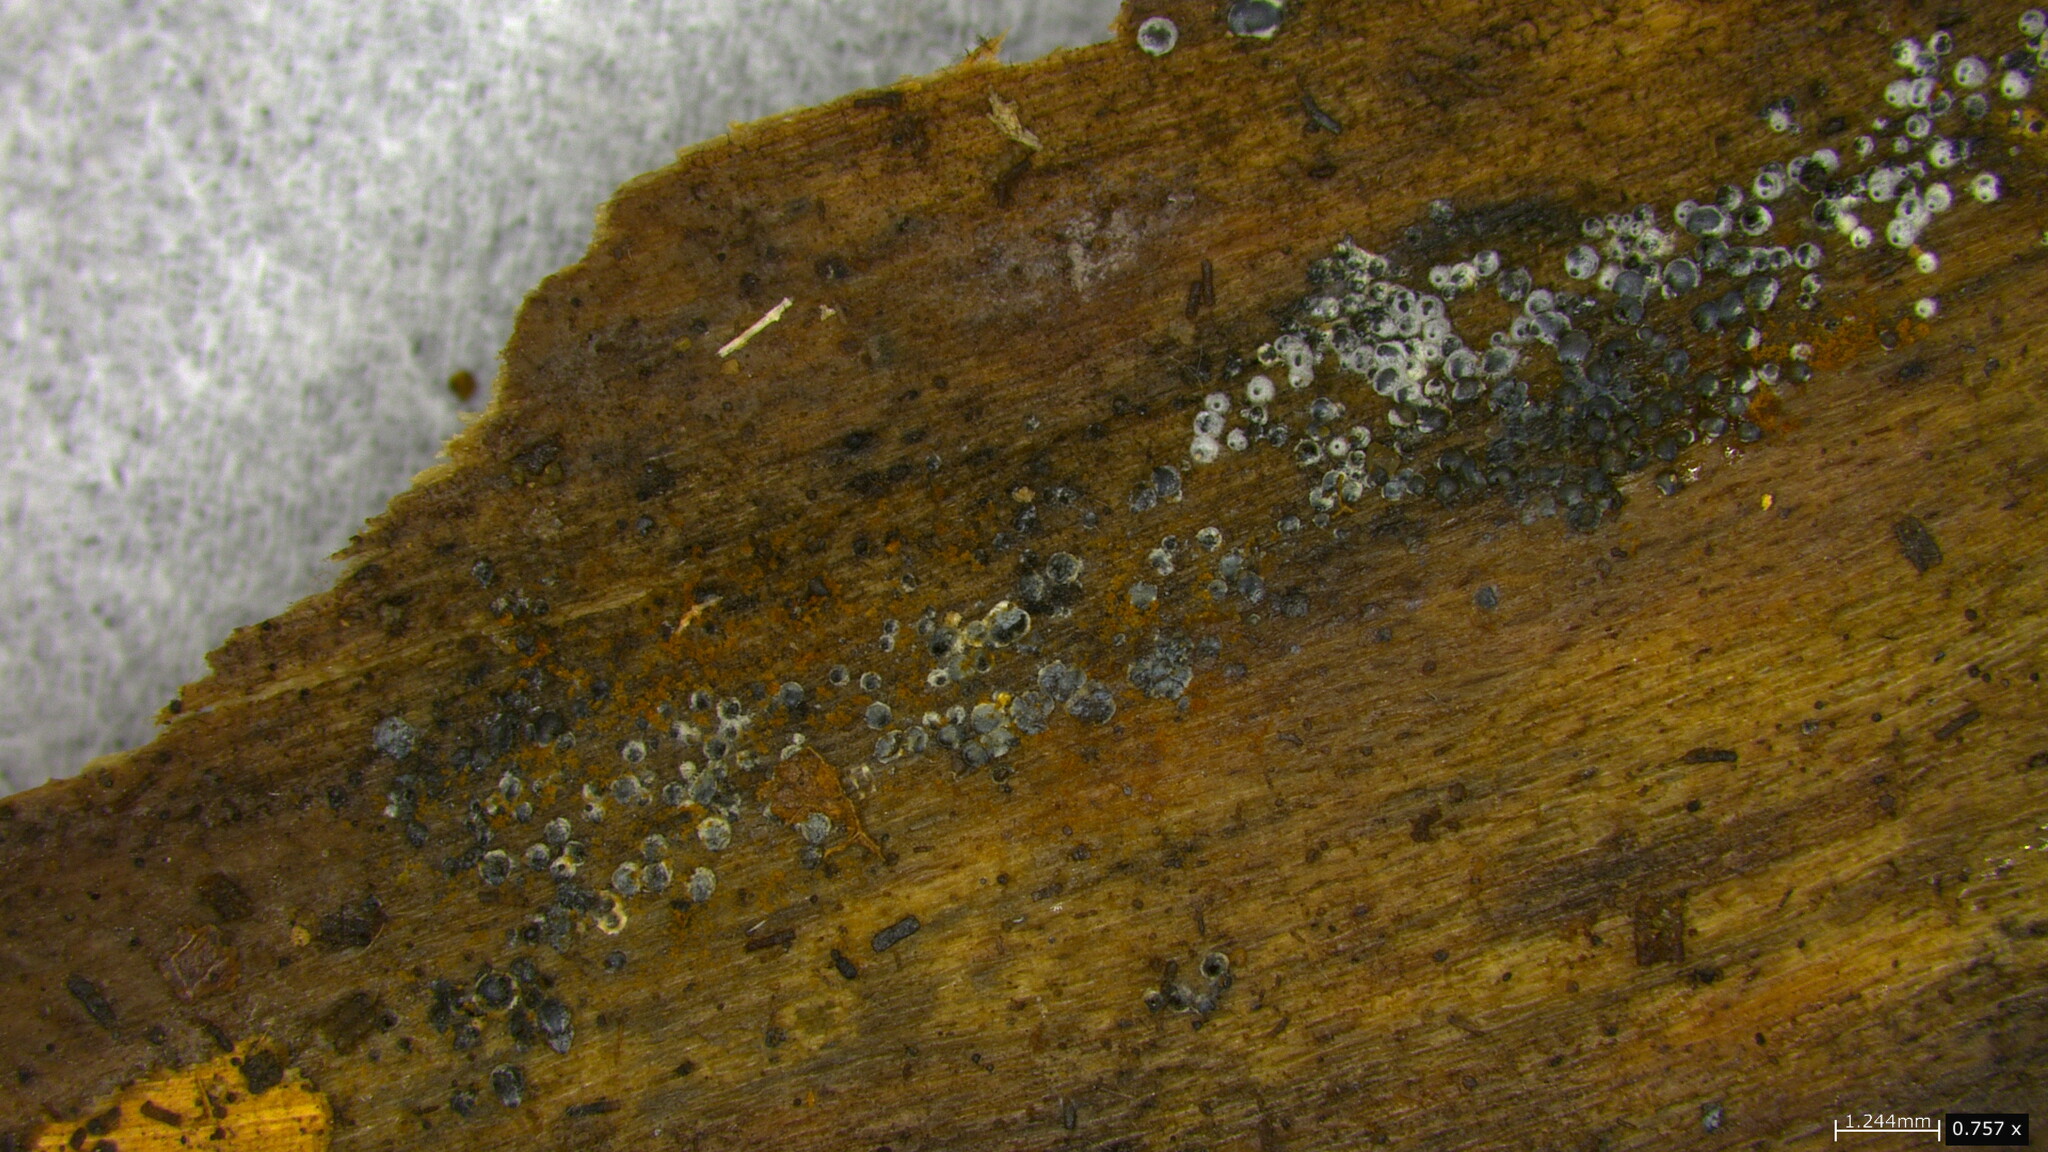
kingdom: Fungi
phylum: Ascomycota
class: Sordariomycetes
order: Sordariales
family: Lasiosphaeriaceae
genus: Lasiosphaeria
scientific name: Lasiosphaeria ovina
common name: Woolly woodwart
